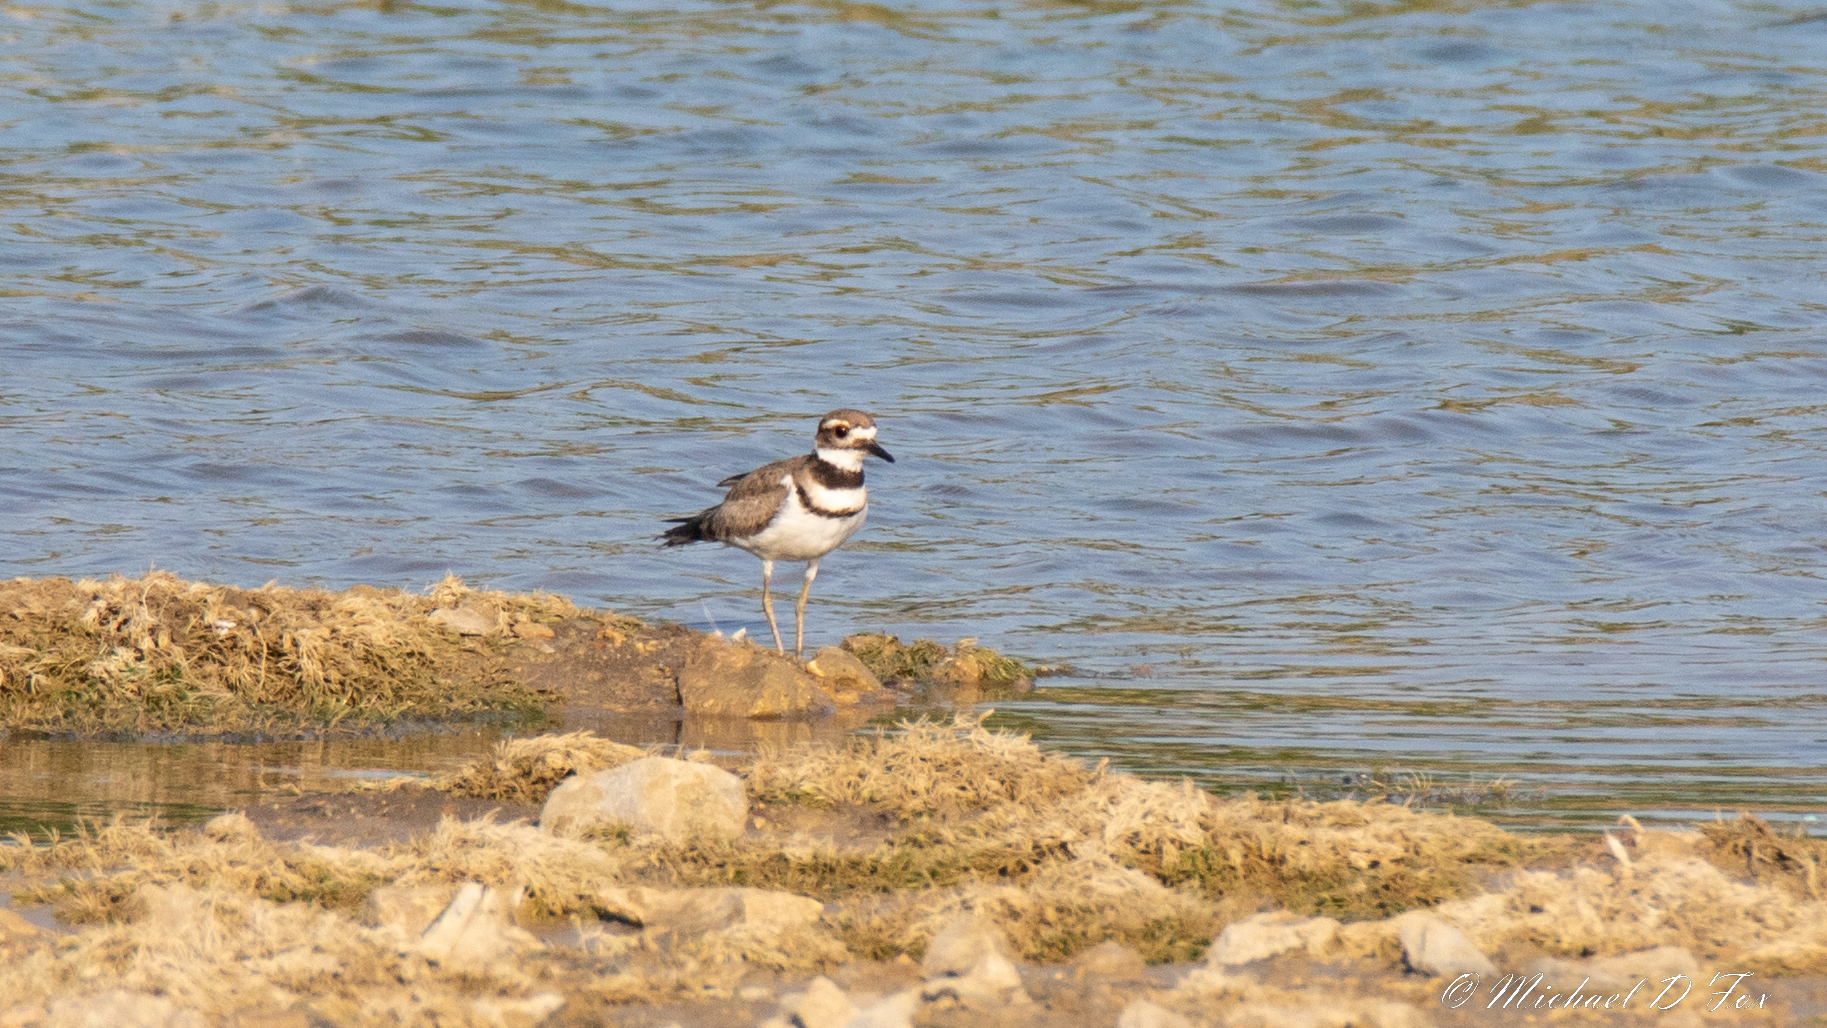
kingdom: Animalia
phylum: Chordata
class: Aves
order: Charadriiformes
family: Charadriidae
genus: Charadrius
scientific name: Charadrius vociferus
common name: Killdeer
